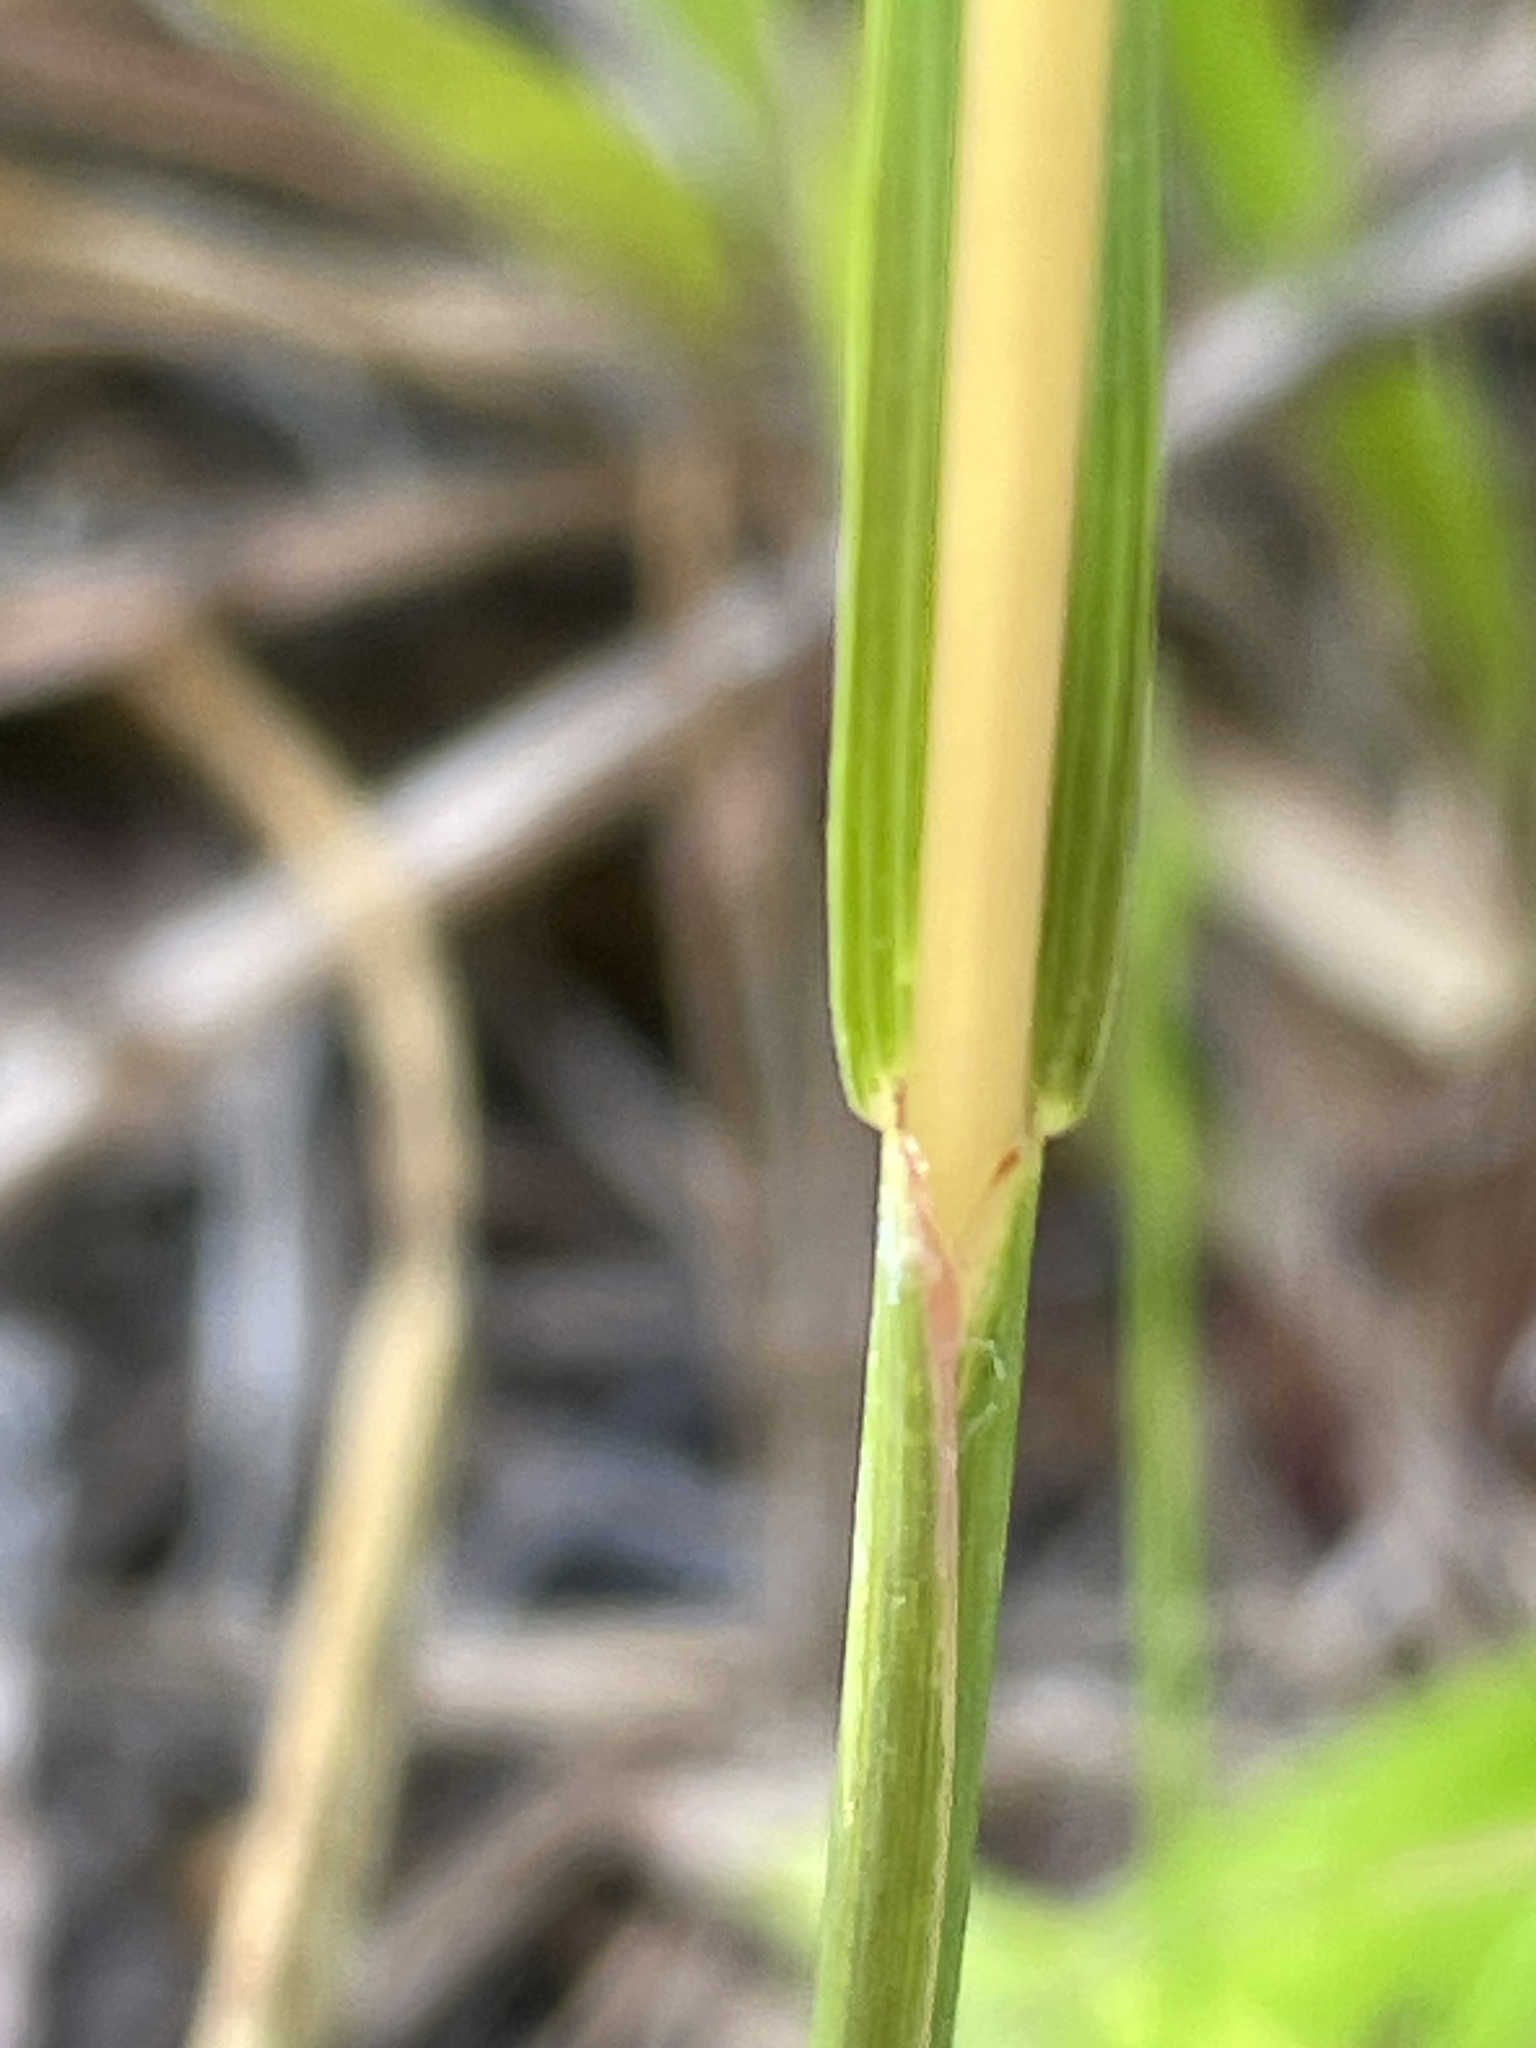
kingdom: Plantae
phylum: Tracheophyta
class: Liliopsida
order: Poales
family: Poaceae
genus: Rottboellia
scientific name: Rottboellia campestris
